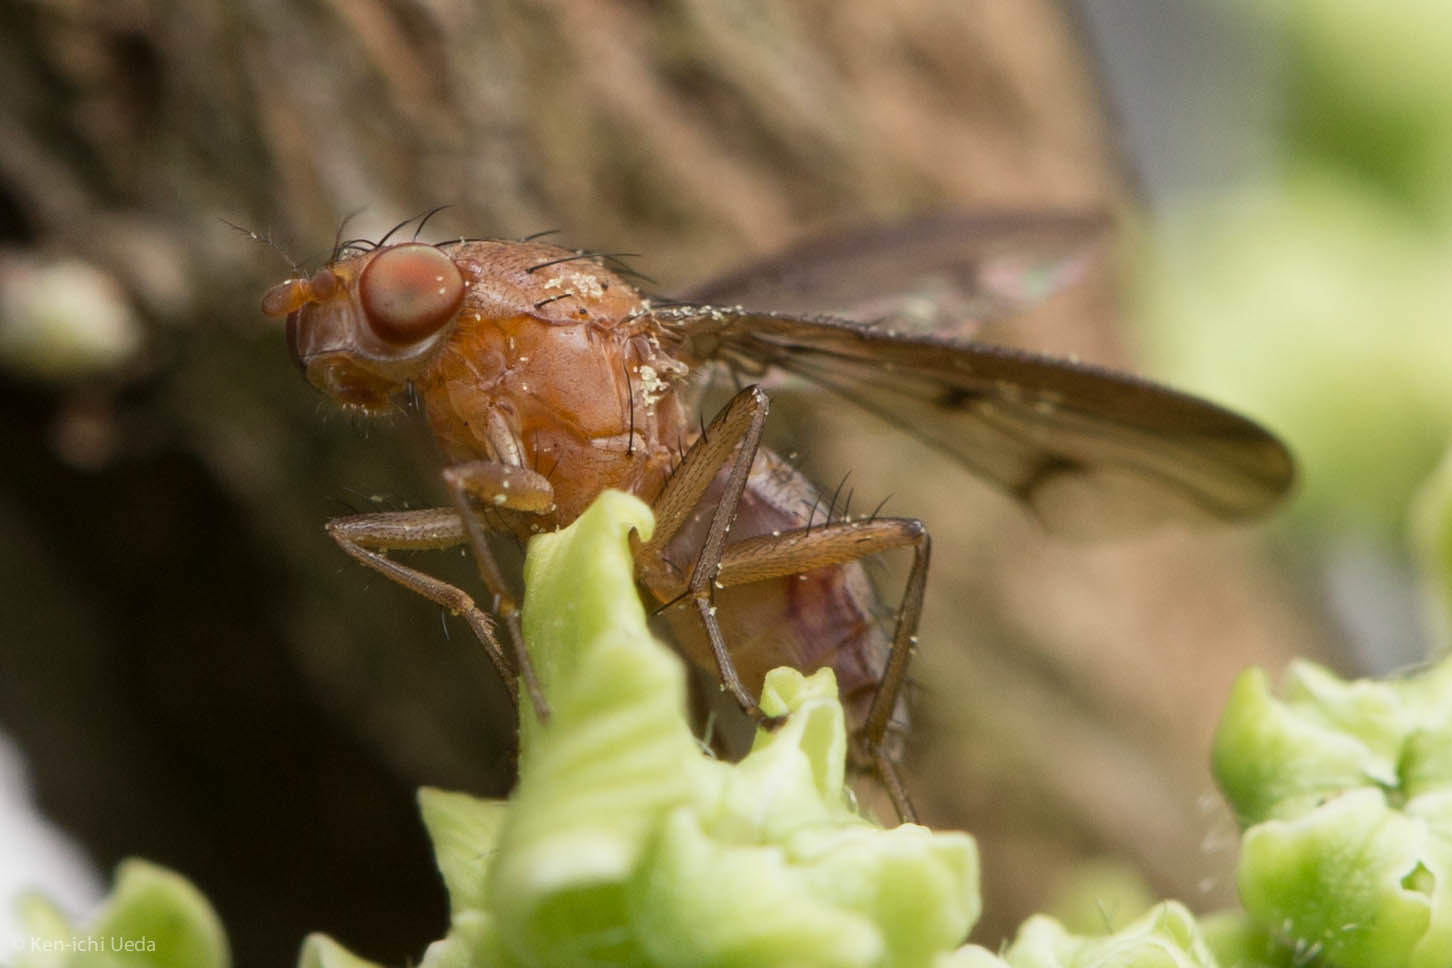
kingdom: Animalia
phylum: Arthropoda
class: Insecta
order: Diptera
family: Heleomyzidae
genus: Suillia
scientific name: Suillia sororcula
